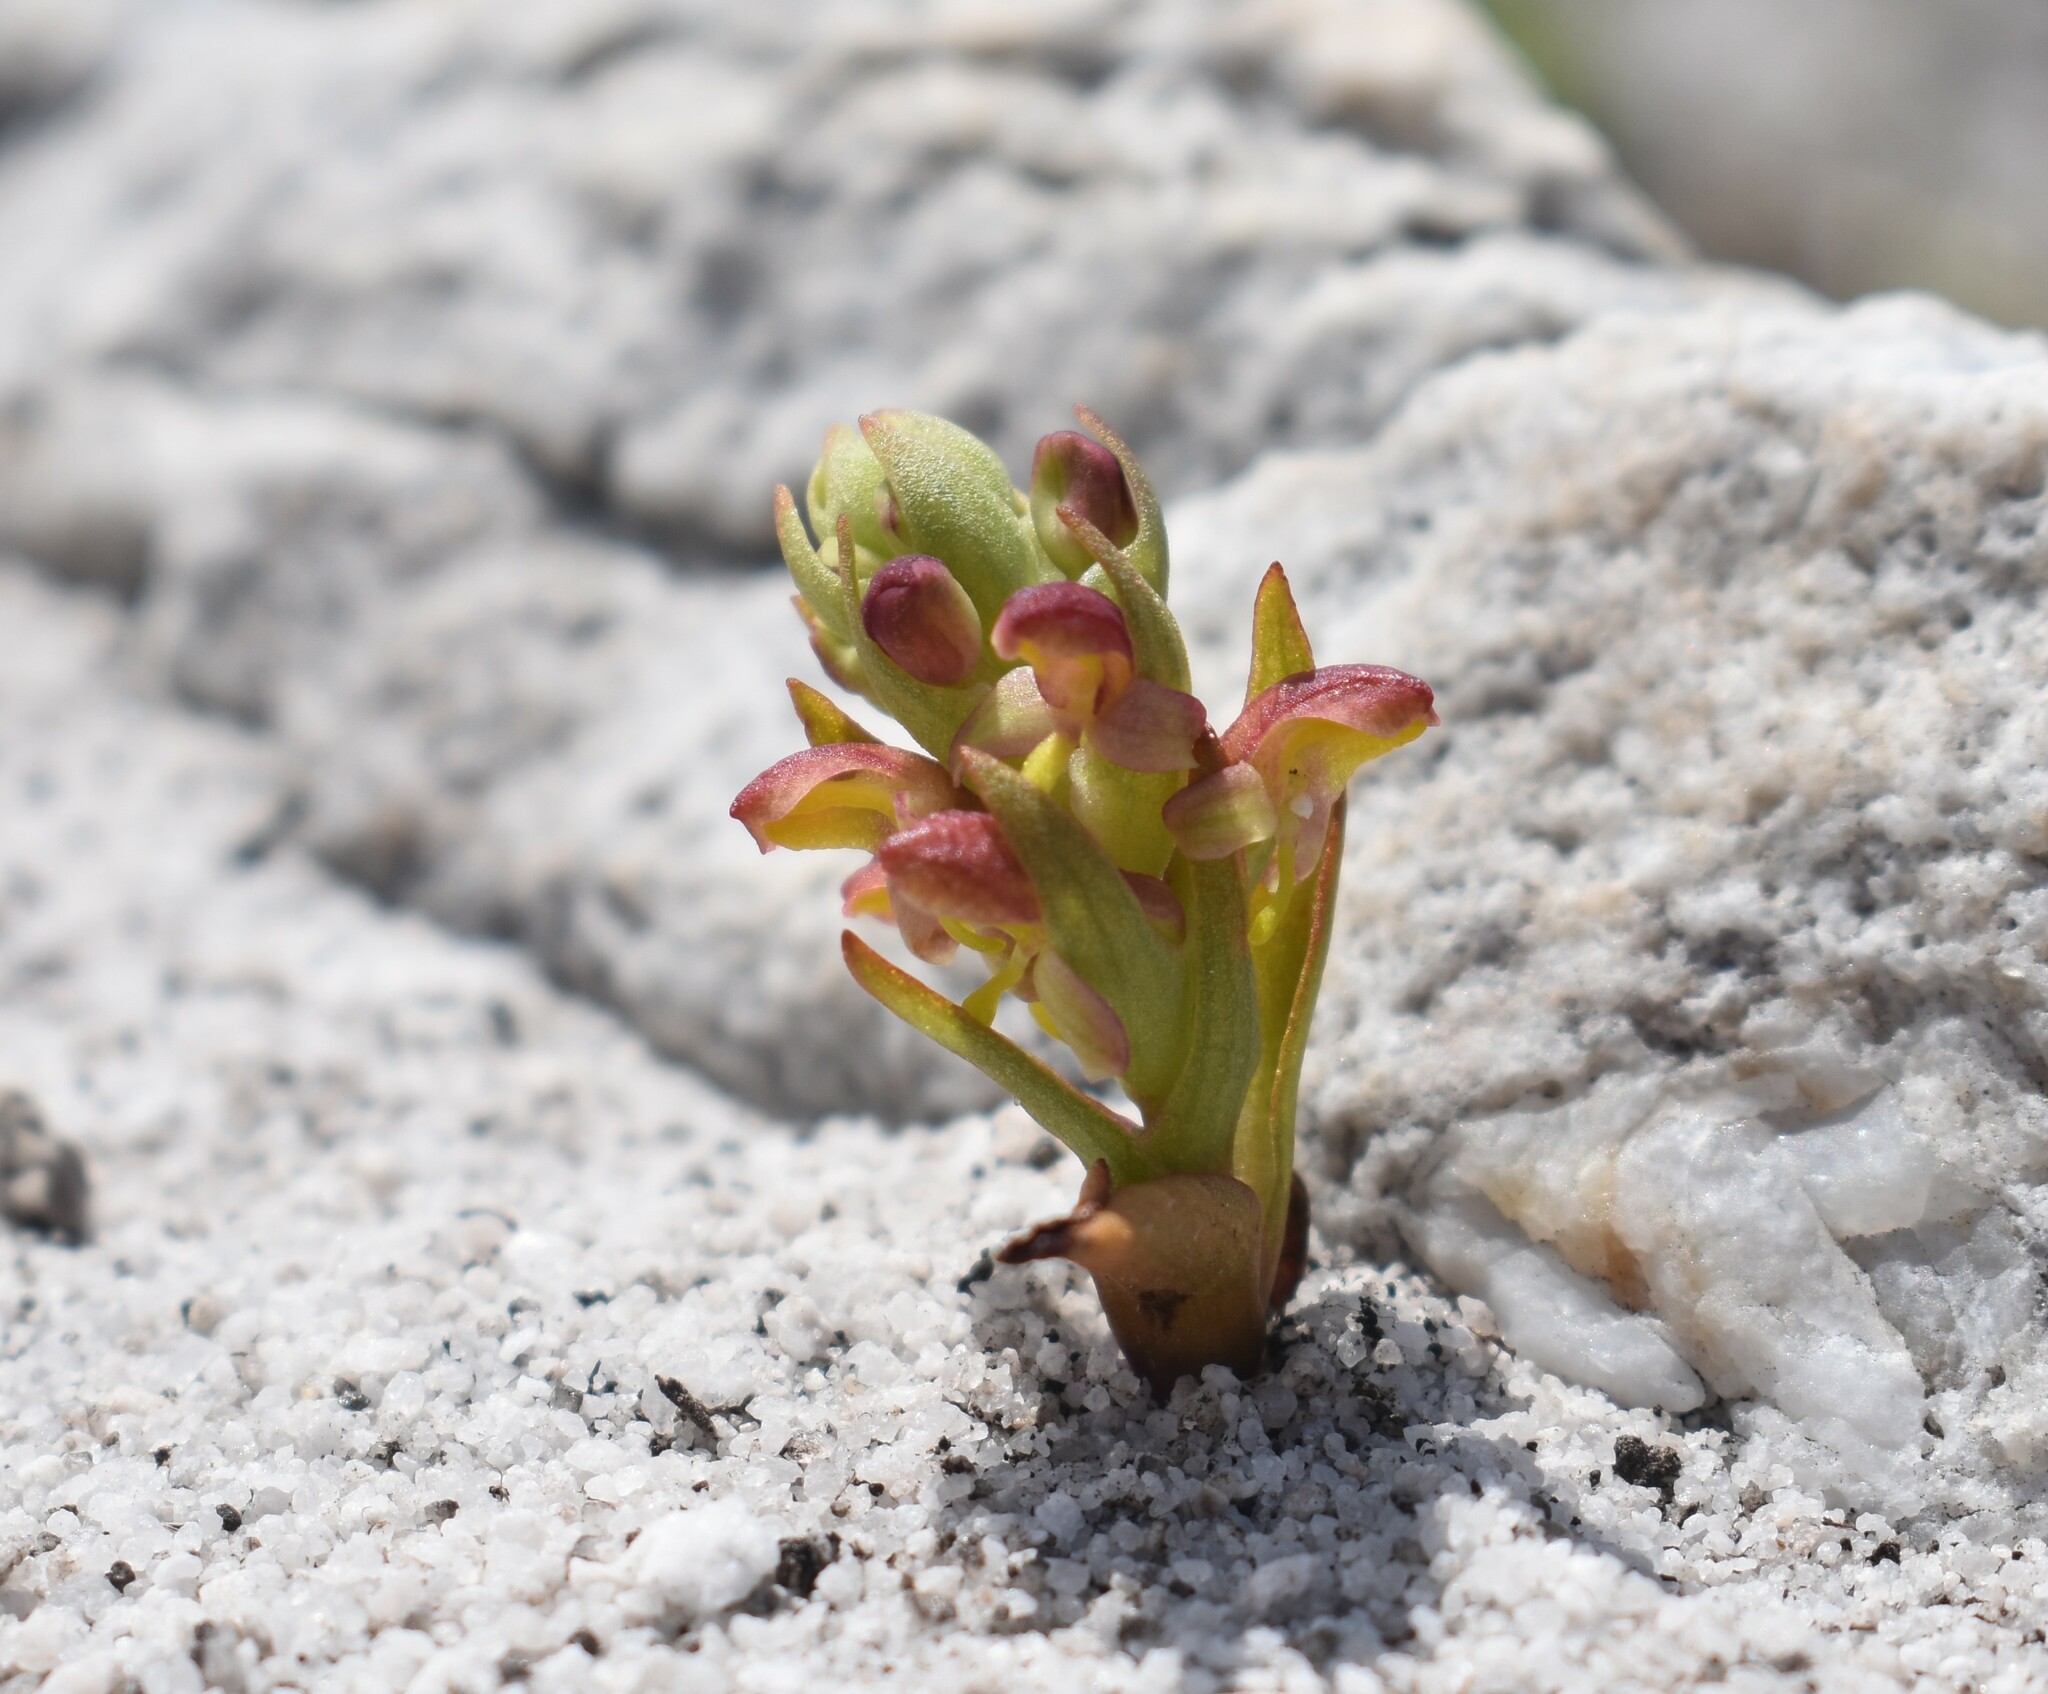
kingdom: Plantae
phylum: Tracheophyta
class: Liliopsida
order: Asparagales
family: Orchidaceae
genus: Disa
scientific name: Disa pygmaea
